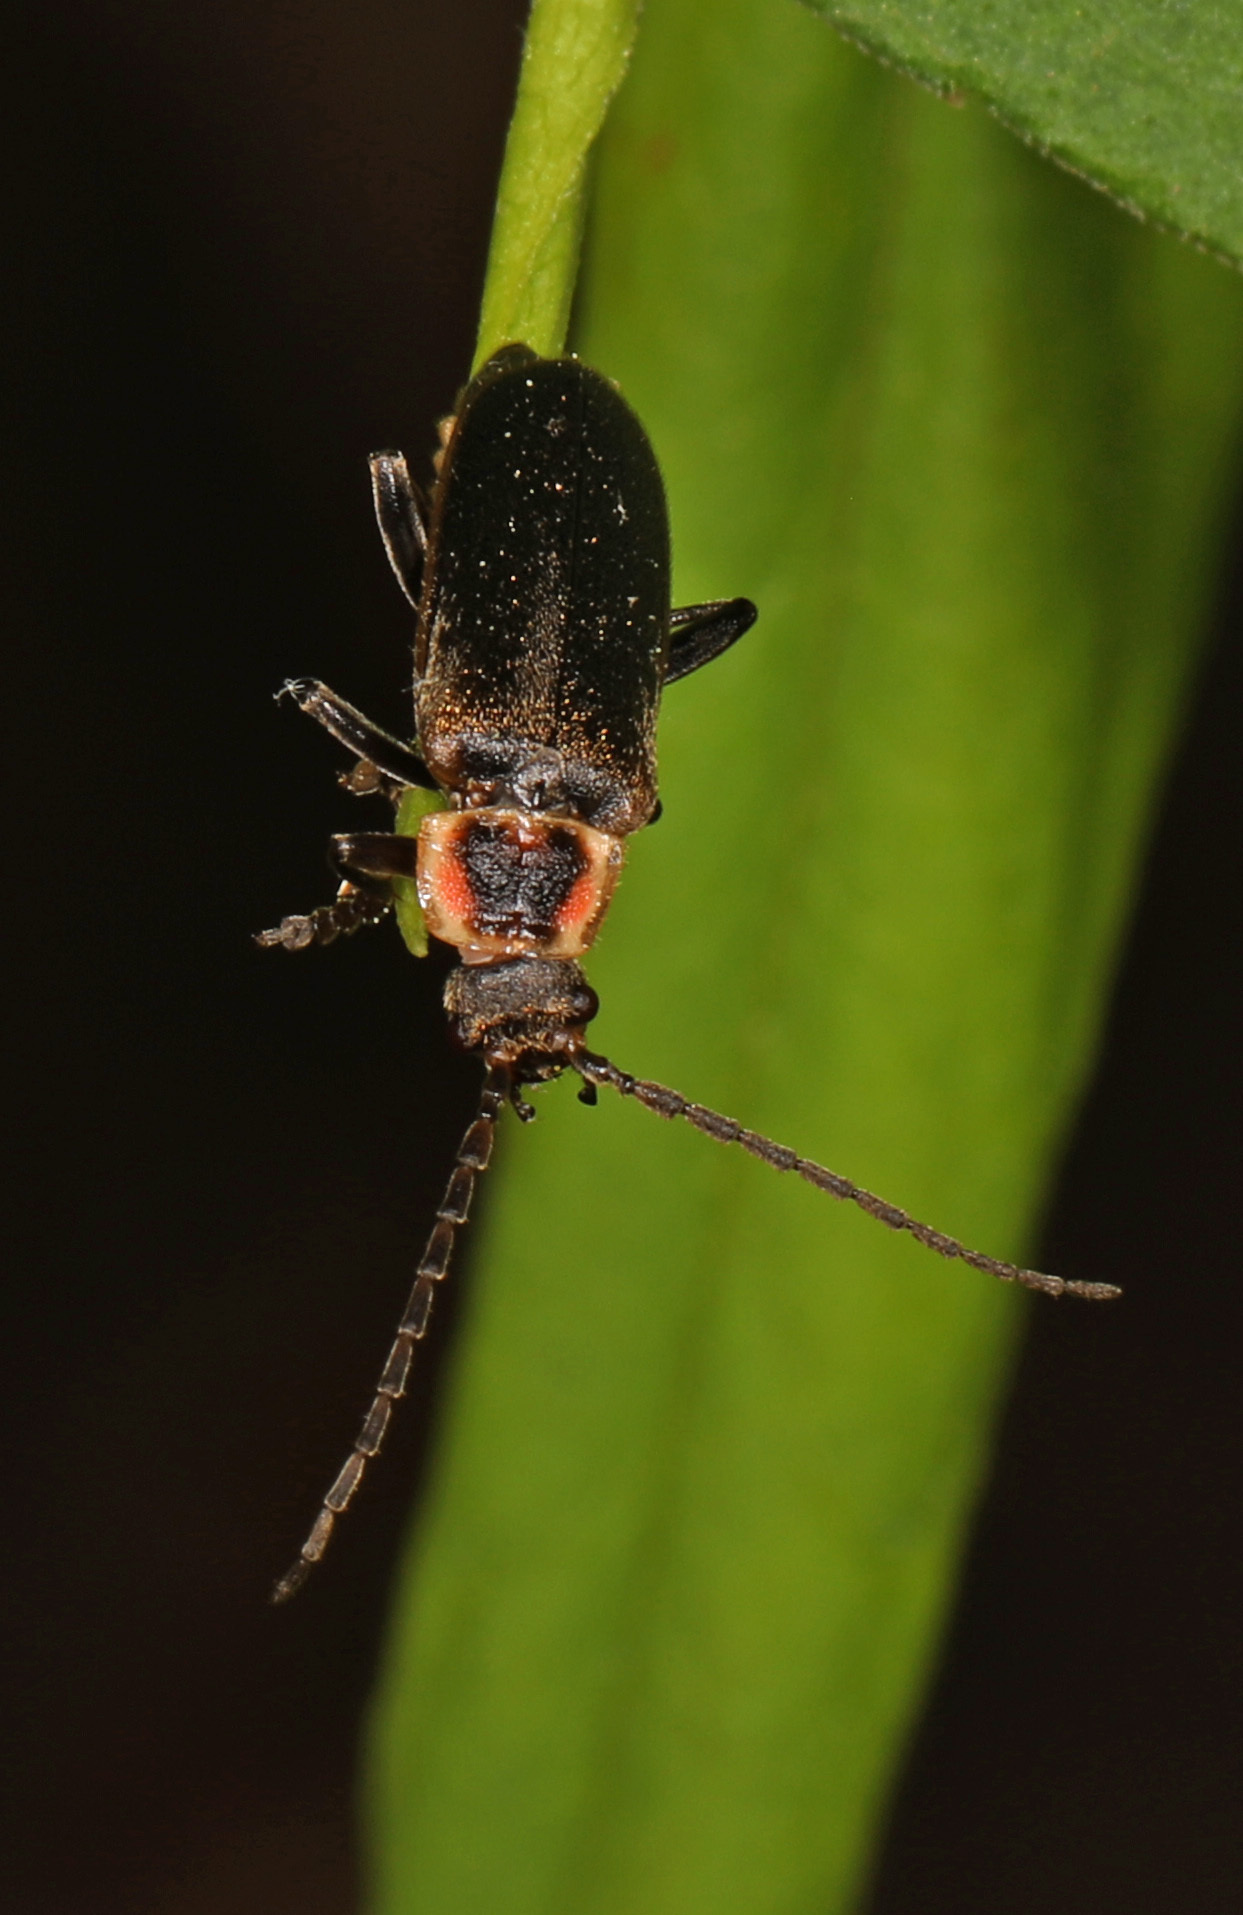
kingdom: Animalia
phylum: Arthropoda
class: Insecta
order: Coleoptera
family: Cantharidae
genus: Atalantycha
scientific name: Atalantycha dentigera
